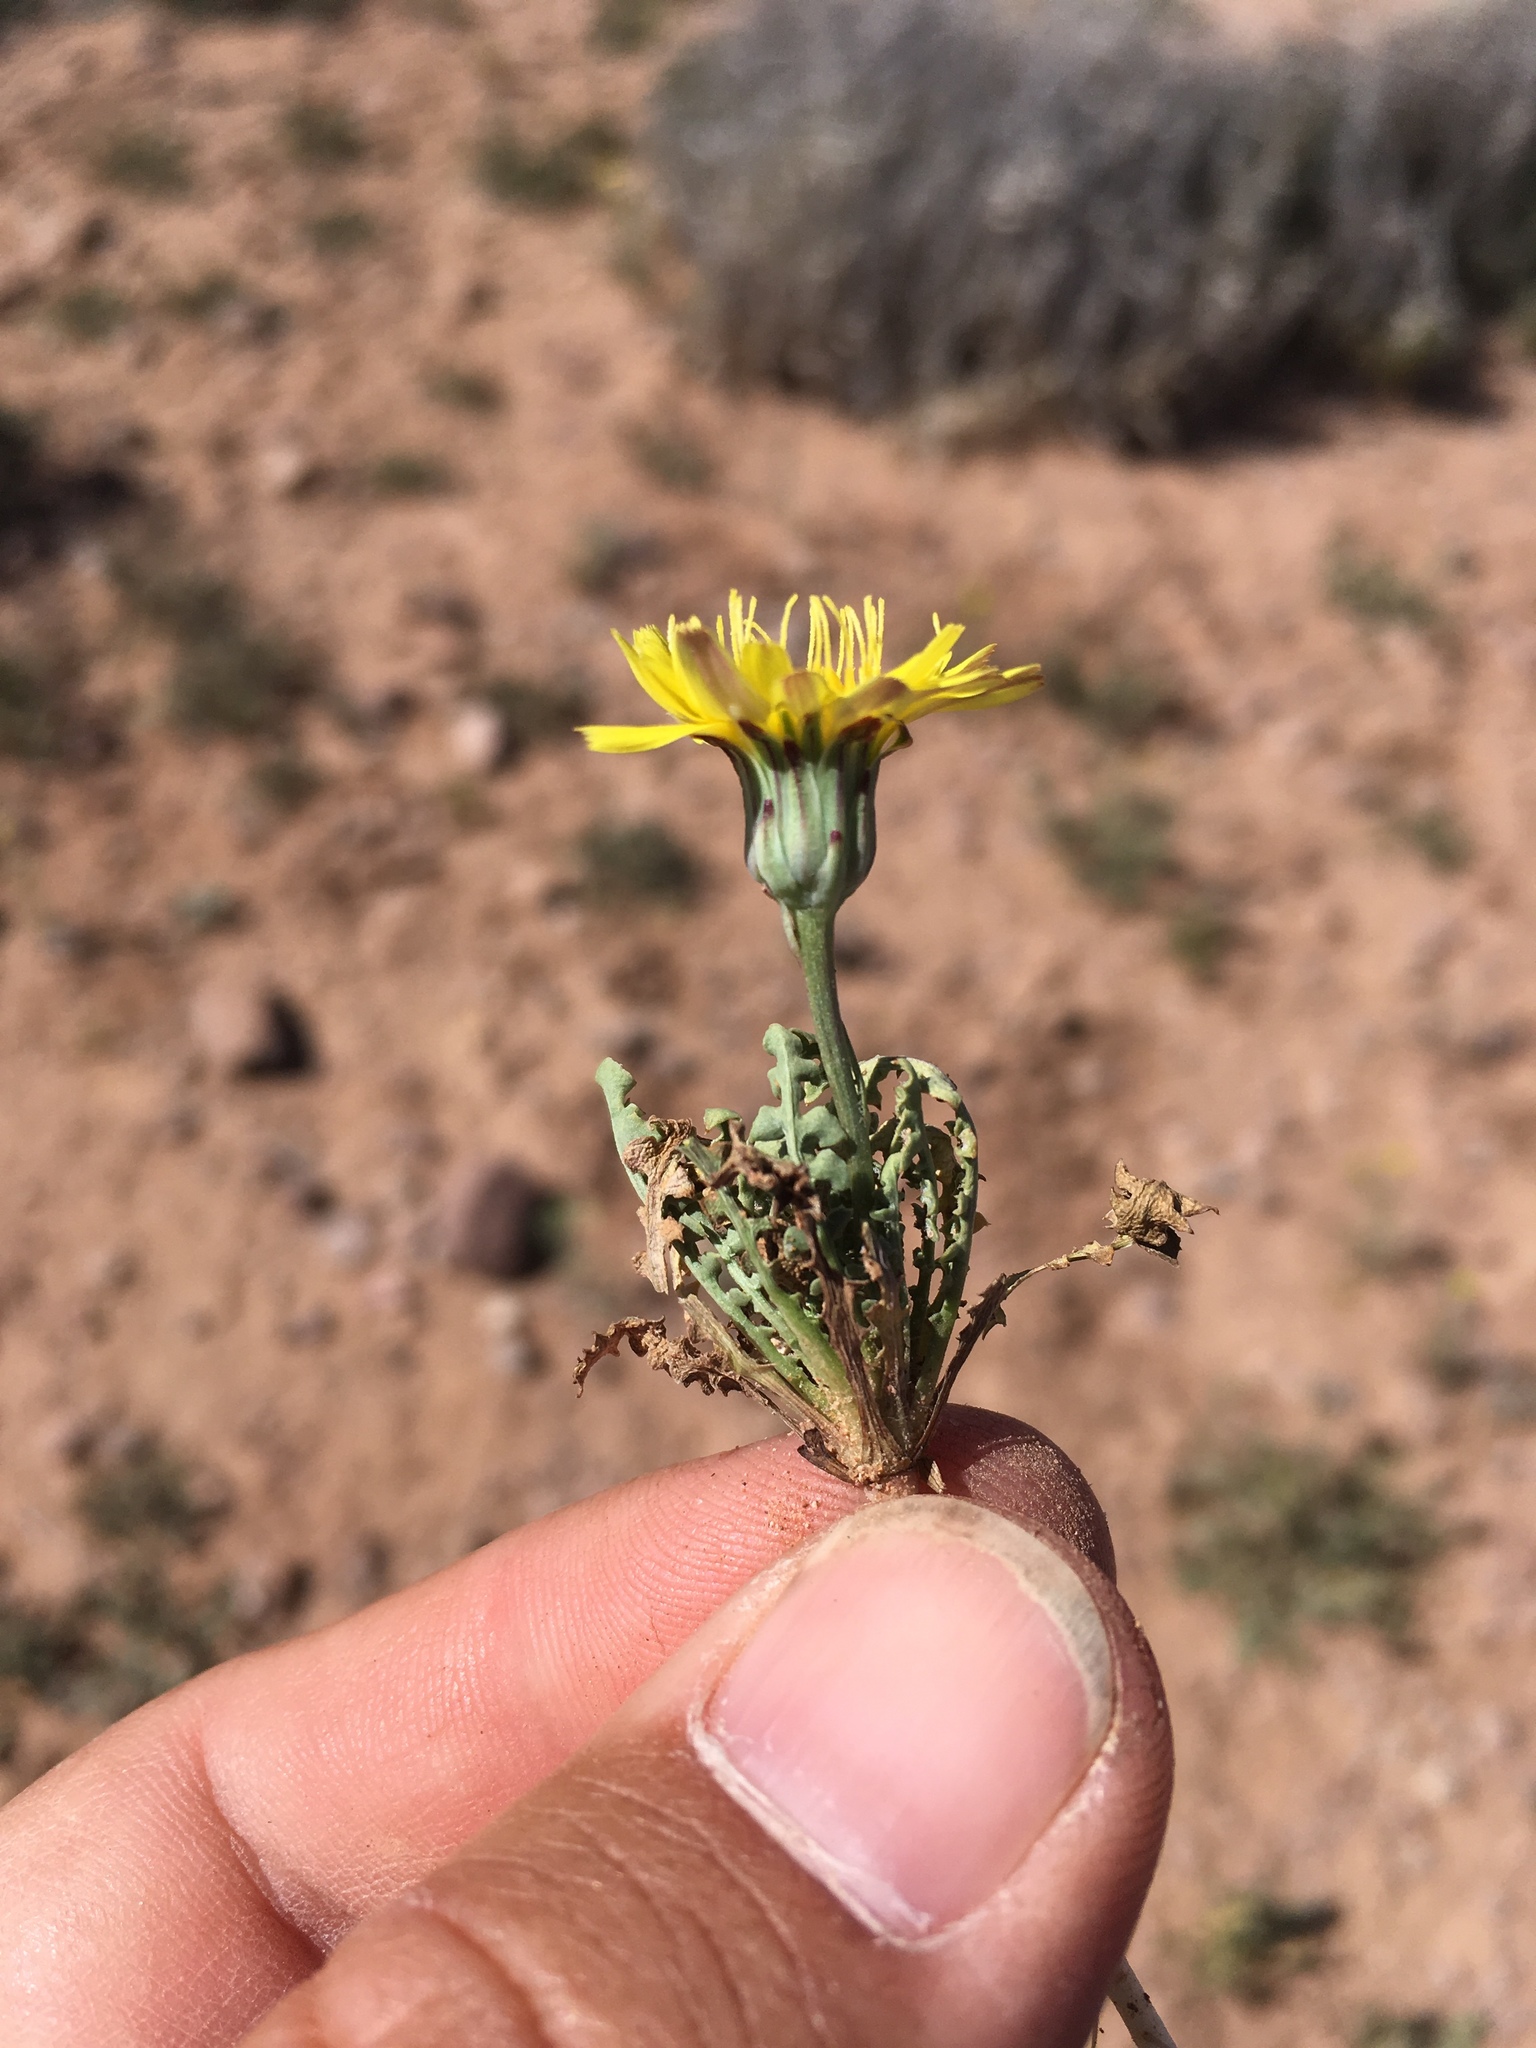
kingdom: Plantae
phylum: Tracheophyta
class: Magnoliopsida
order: Asterales
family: Asteraceae
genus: Malacothrix
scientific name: Malacothrix fendleri
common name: Fendler's desert-dandelion
